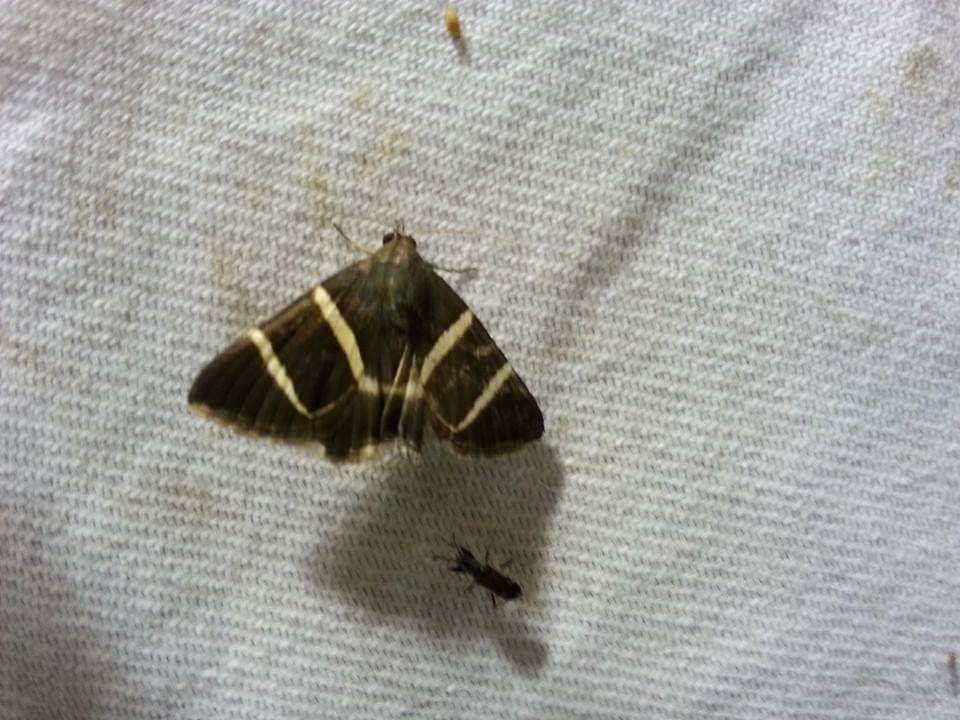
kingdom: Animalia
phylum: Arthropoda
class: Insecta
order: Lepidoptera
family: Erebidae
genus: Grammodes
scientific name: Grammodes justa
